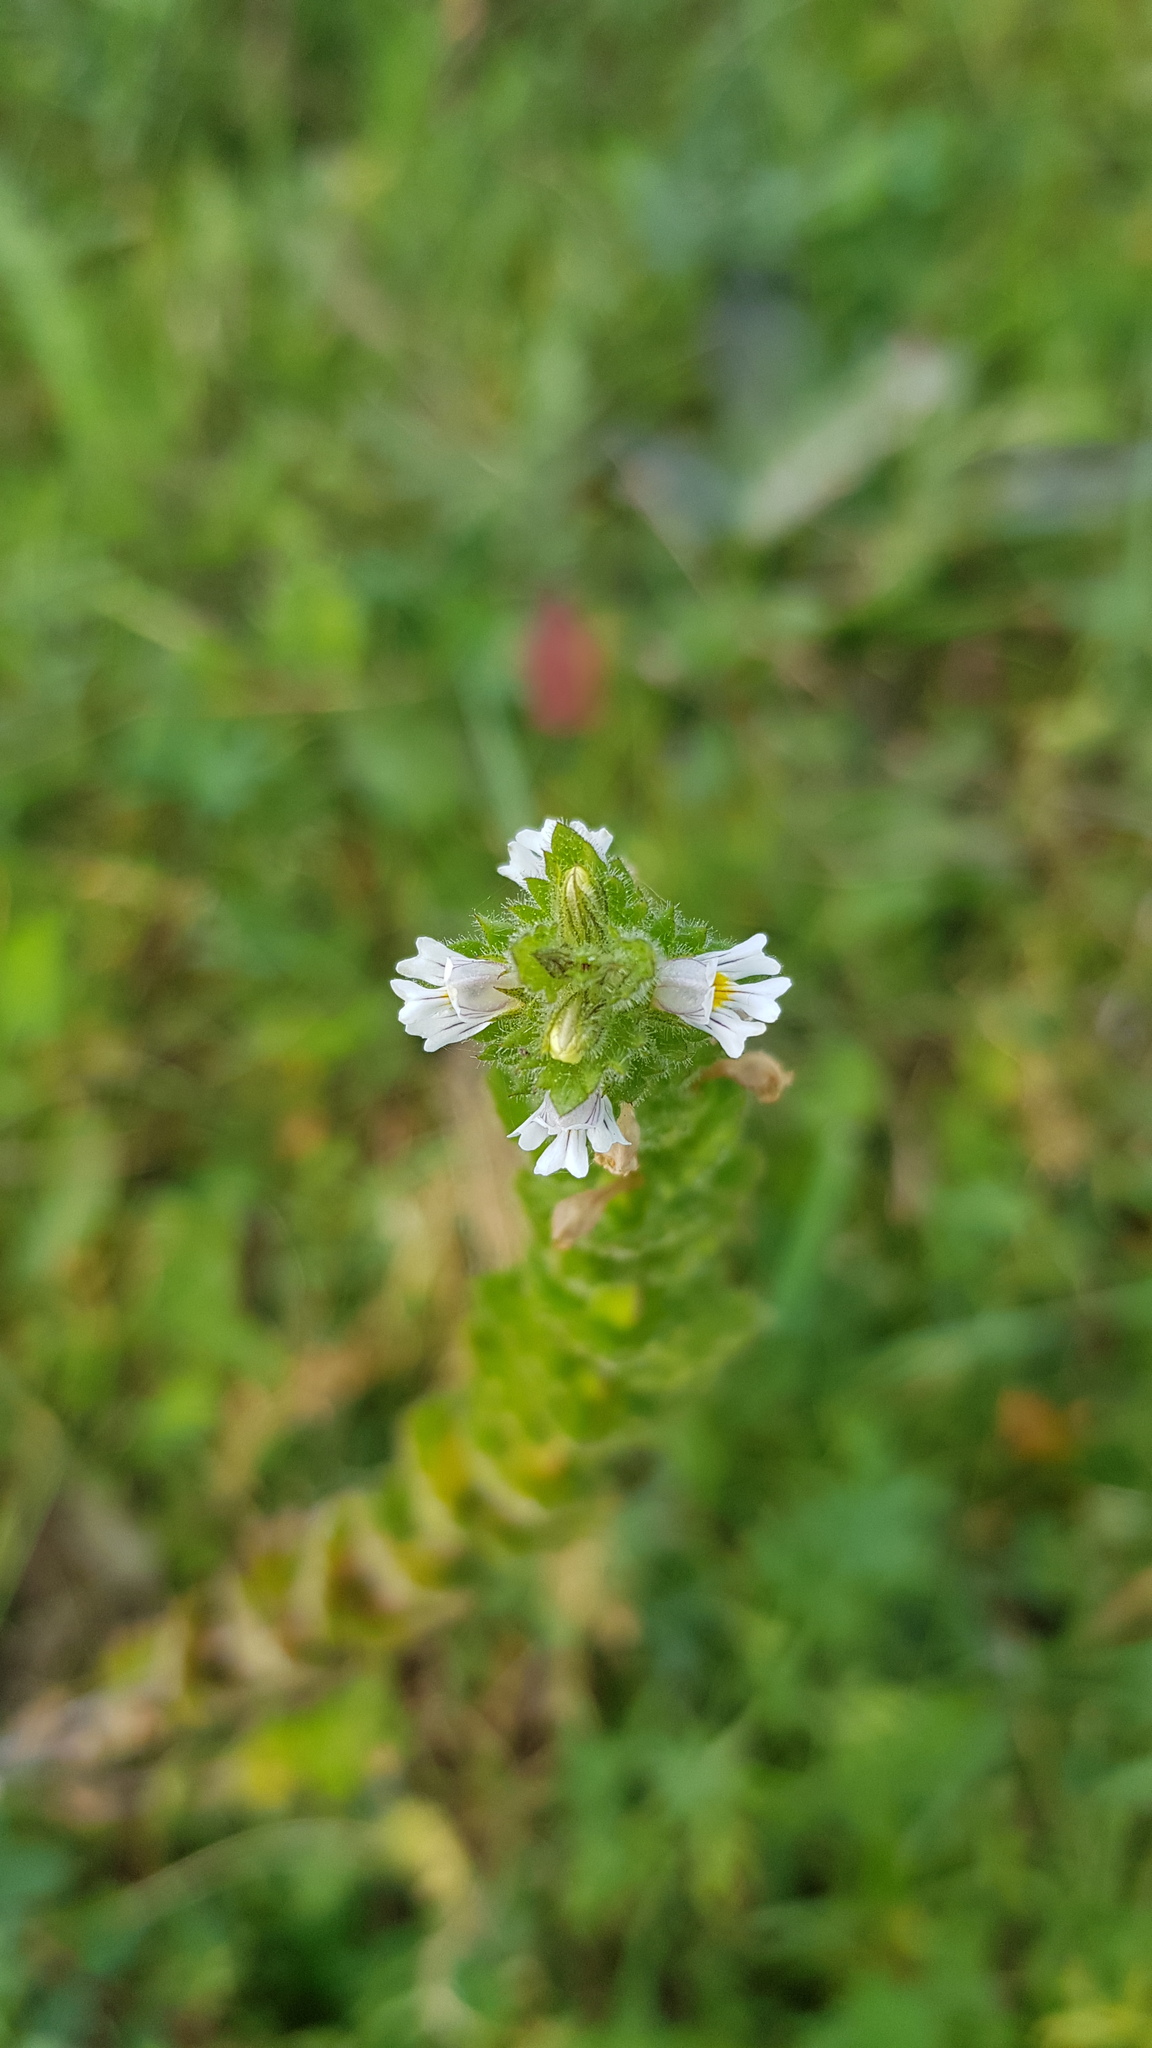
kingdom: Plantae
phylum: Tracheophyta
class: Magnoliopsida
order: Lamiales
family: Orobanchaceae
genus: Euphrasia
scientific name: Euphrasia pectinata
